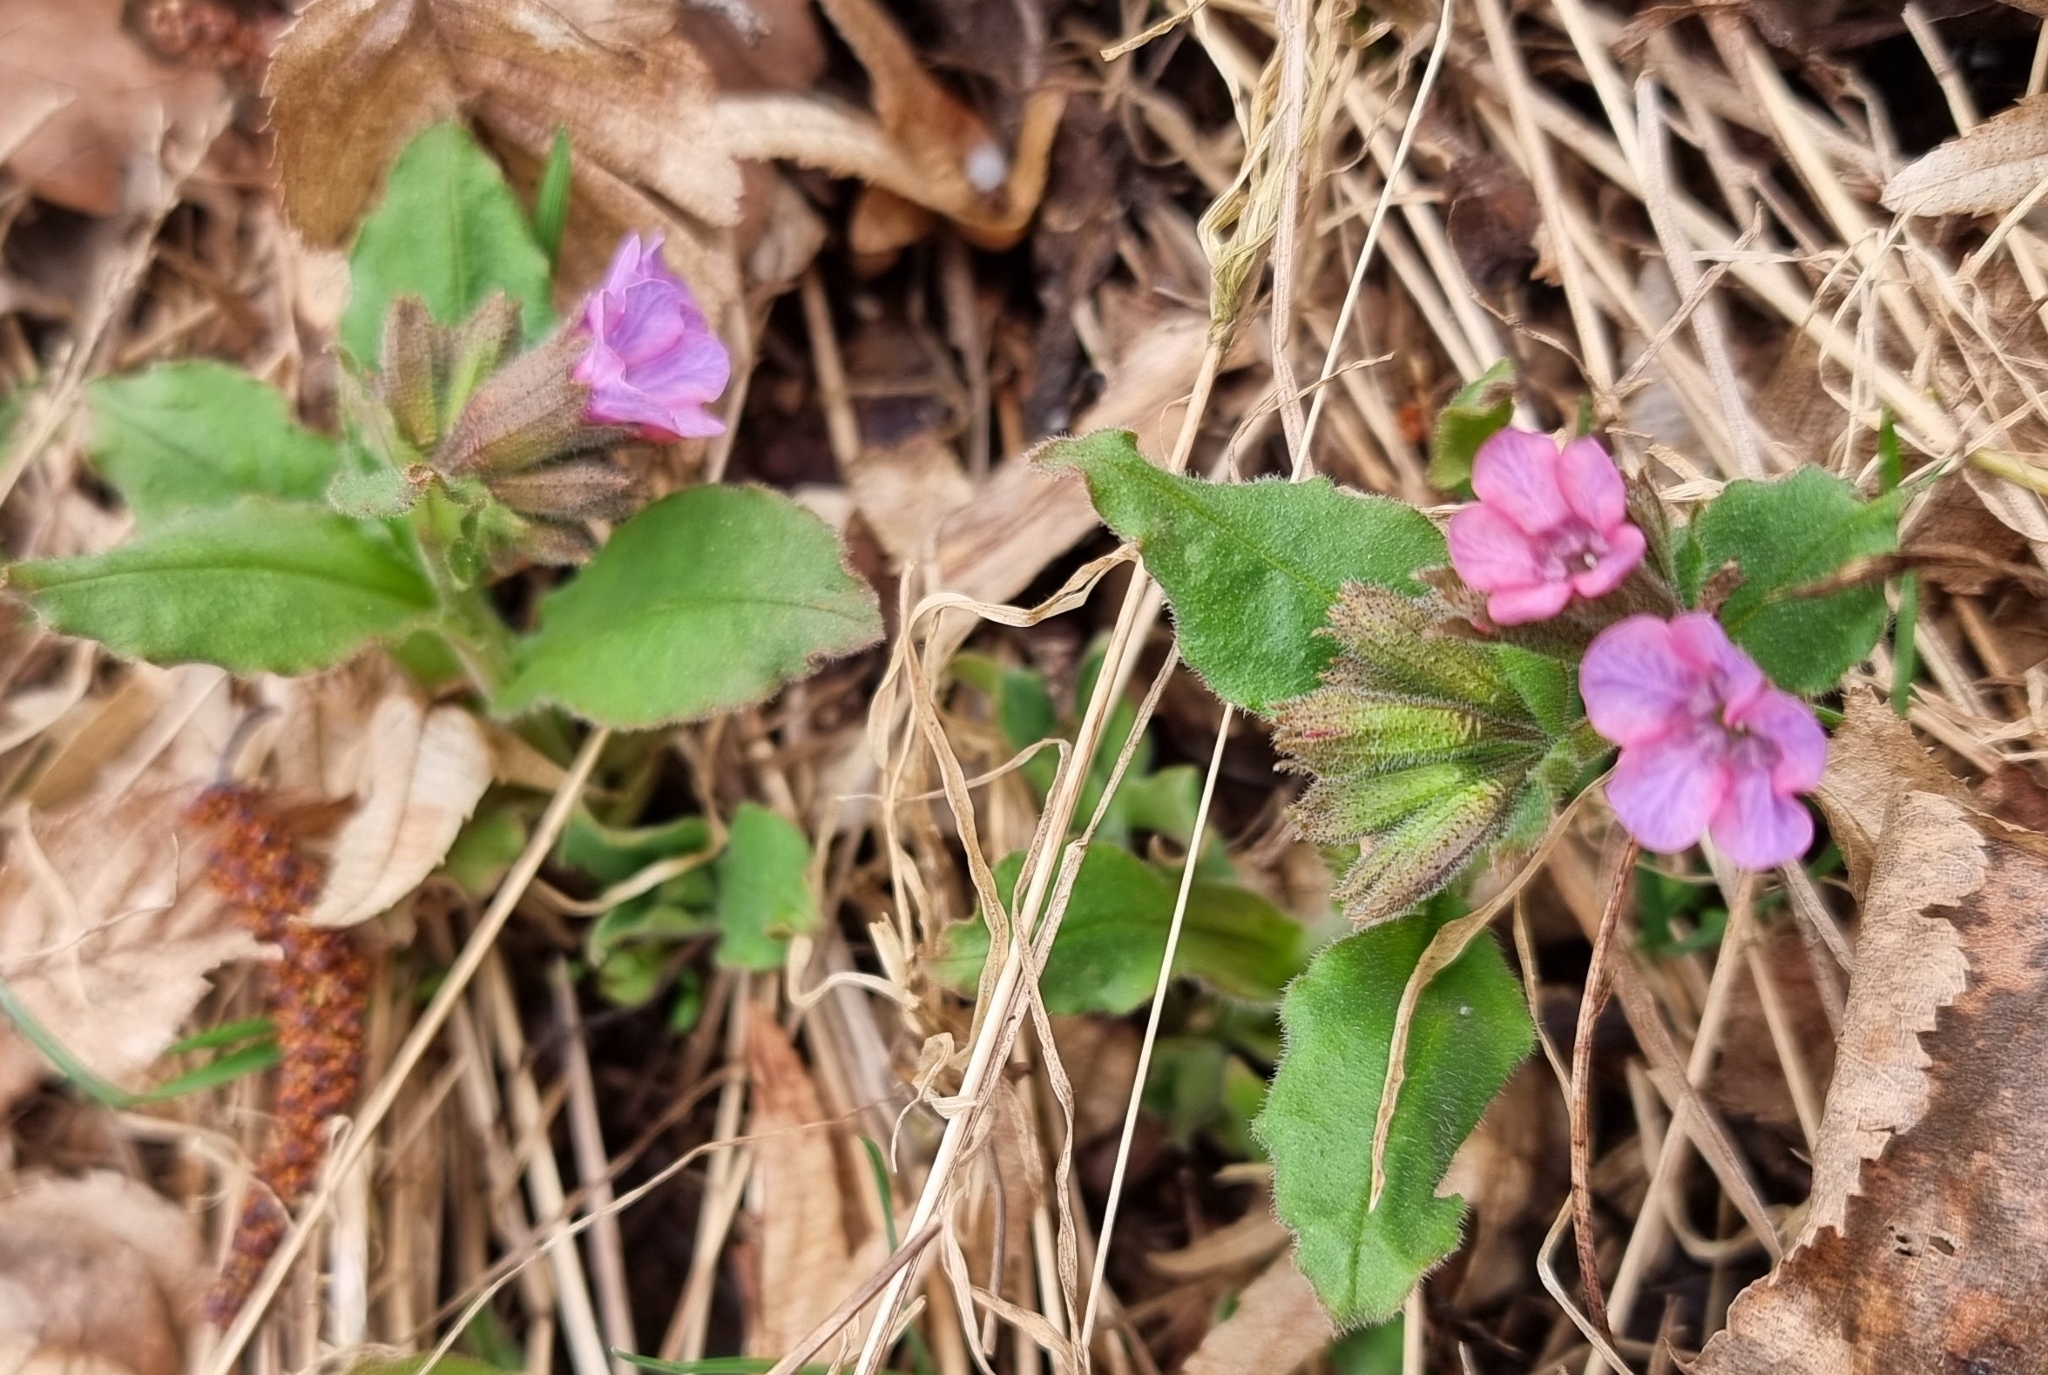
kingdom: Plantae
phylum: Tracheophyta
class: Magnoliopsida
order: Boraginales
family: Boraginaceae
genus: Pulmonaria
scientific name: Pulmonaria obscura
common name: Suffolk lungwort
